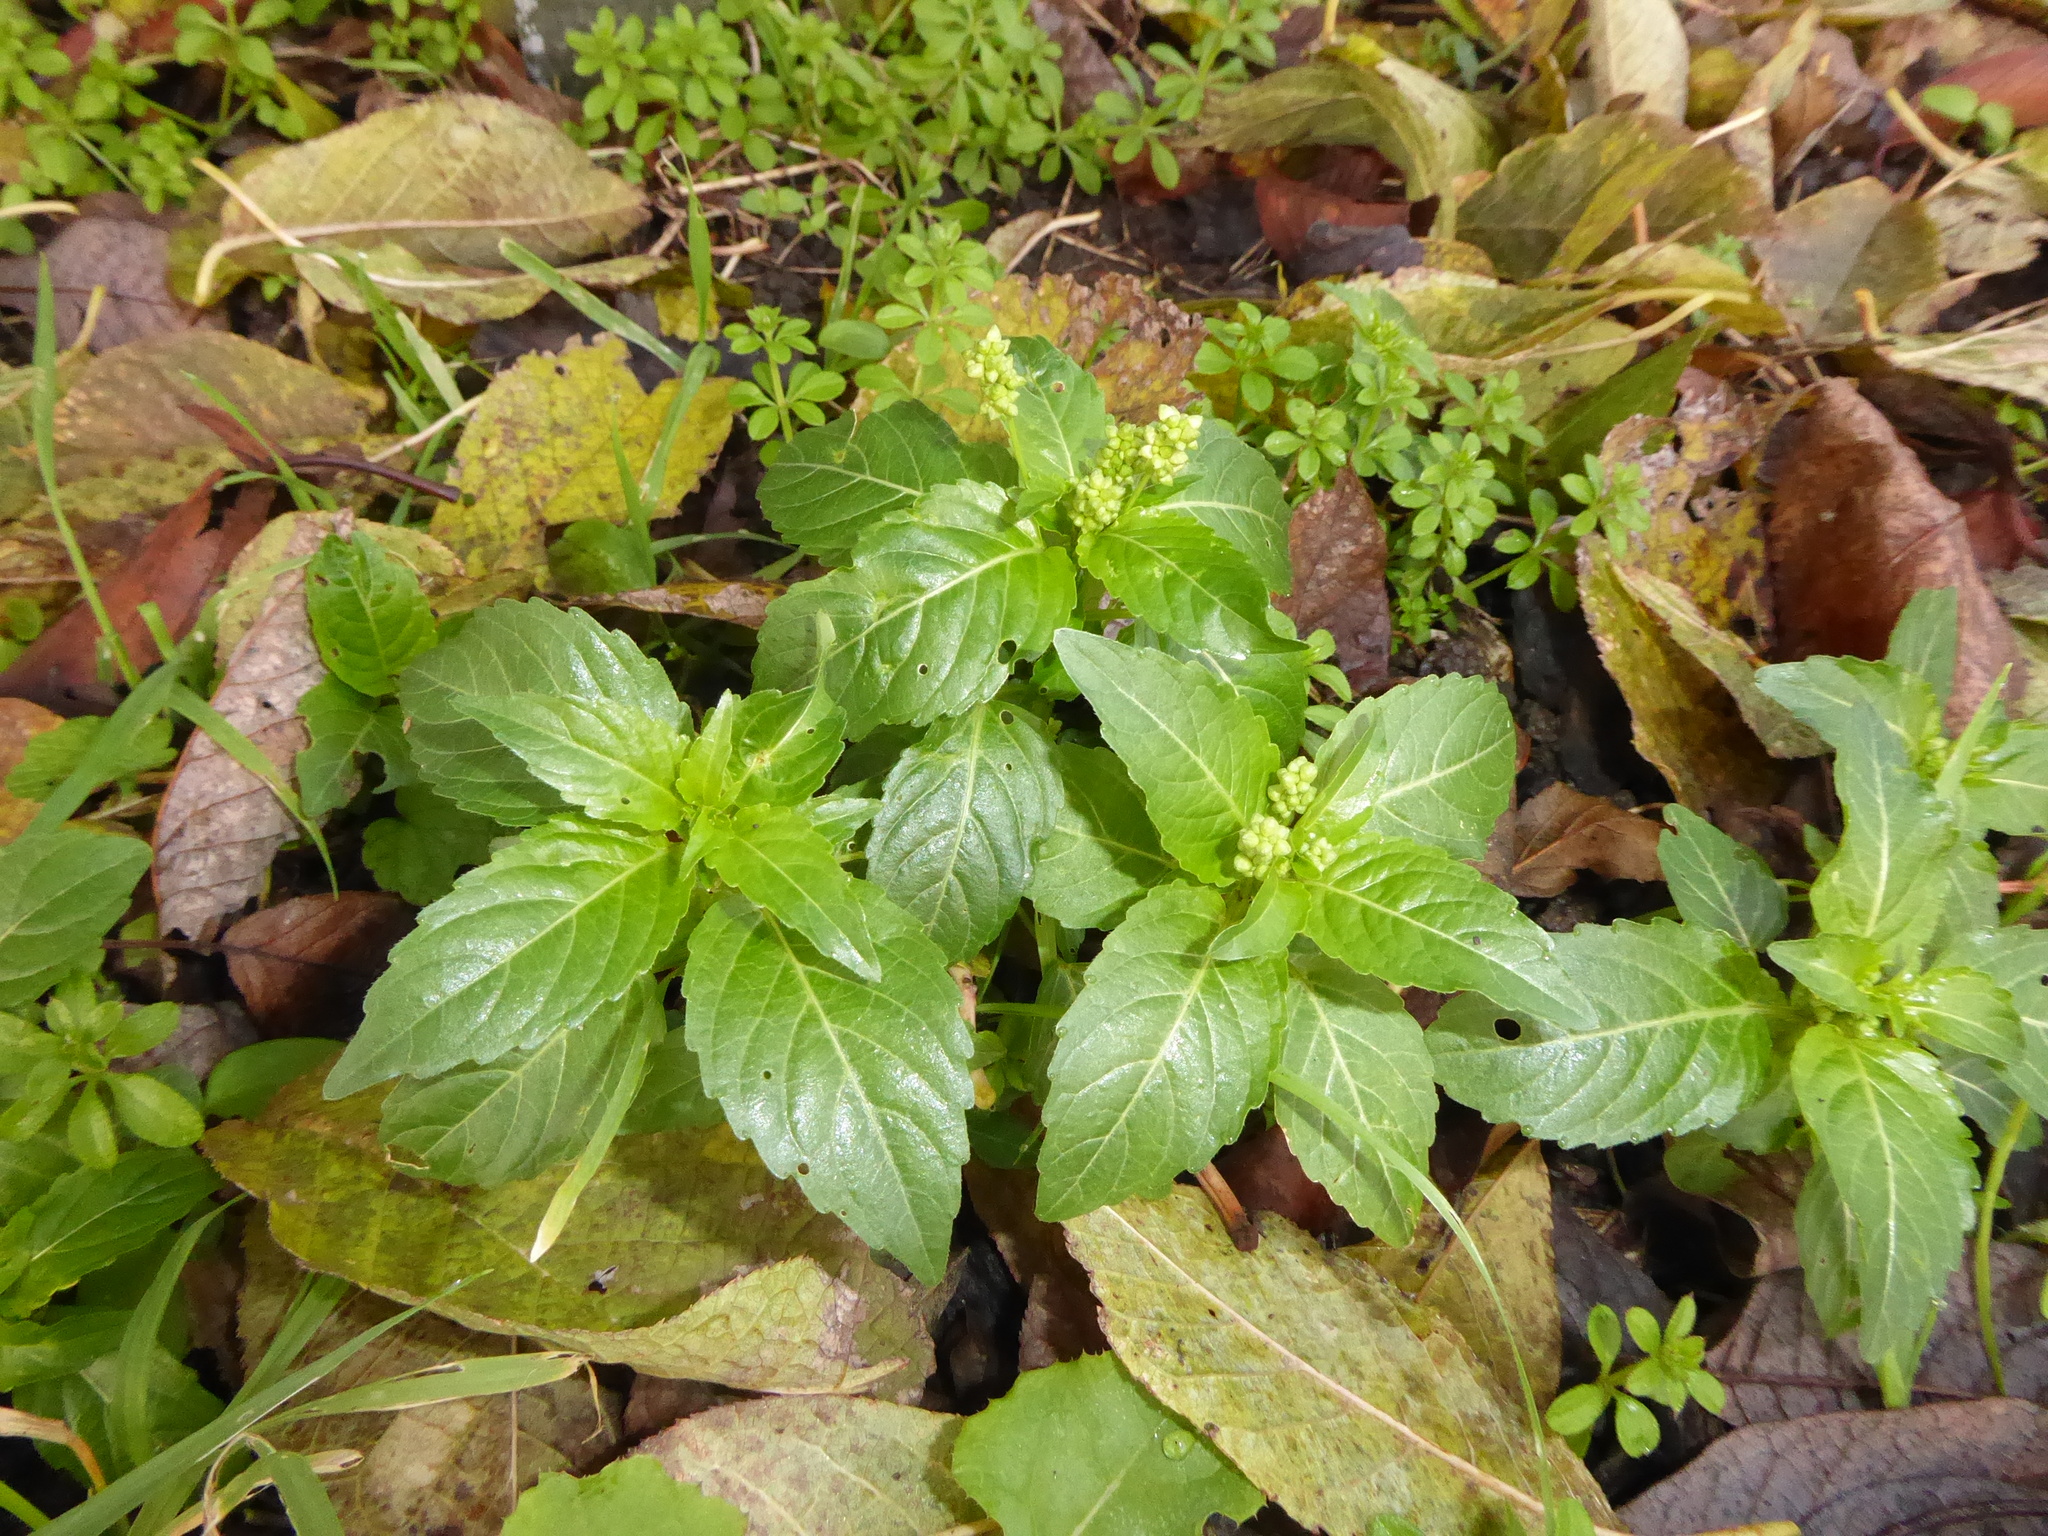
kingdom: Plantae
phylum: Tracheophyta
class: Magnoliopsida
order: Malpighiales
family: Euphorbiaceae
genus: Mercurialis
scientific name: Mercurialis annua
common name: Annual mercury
